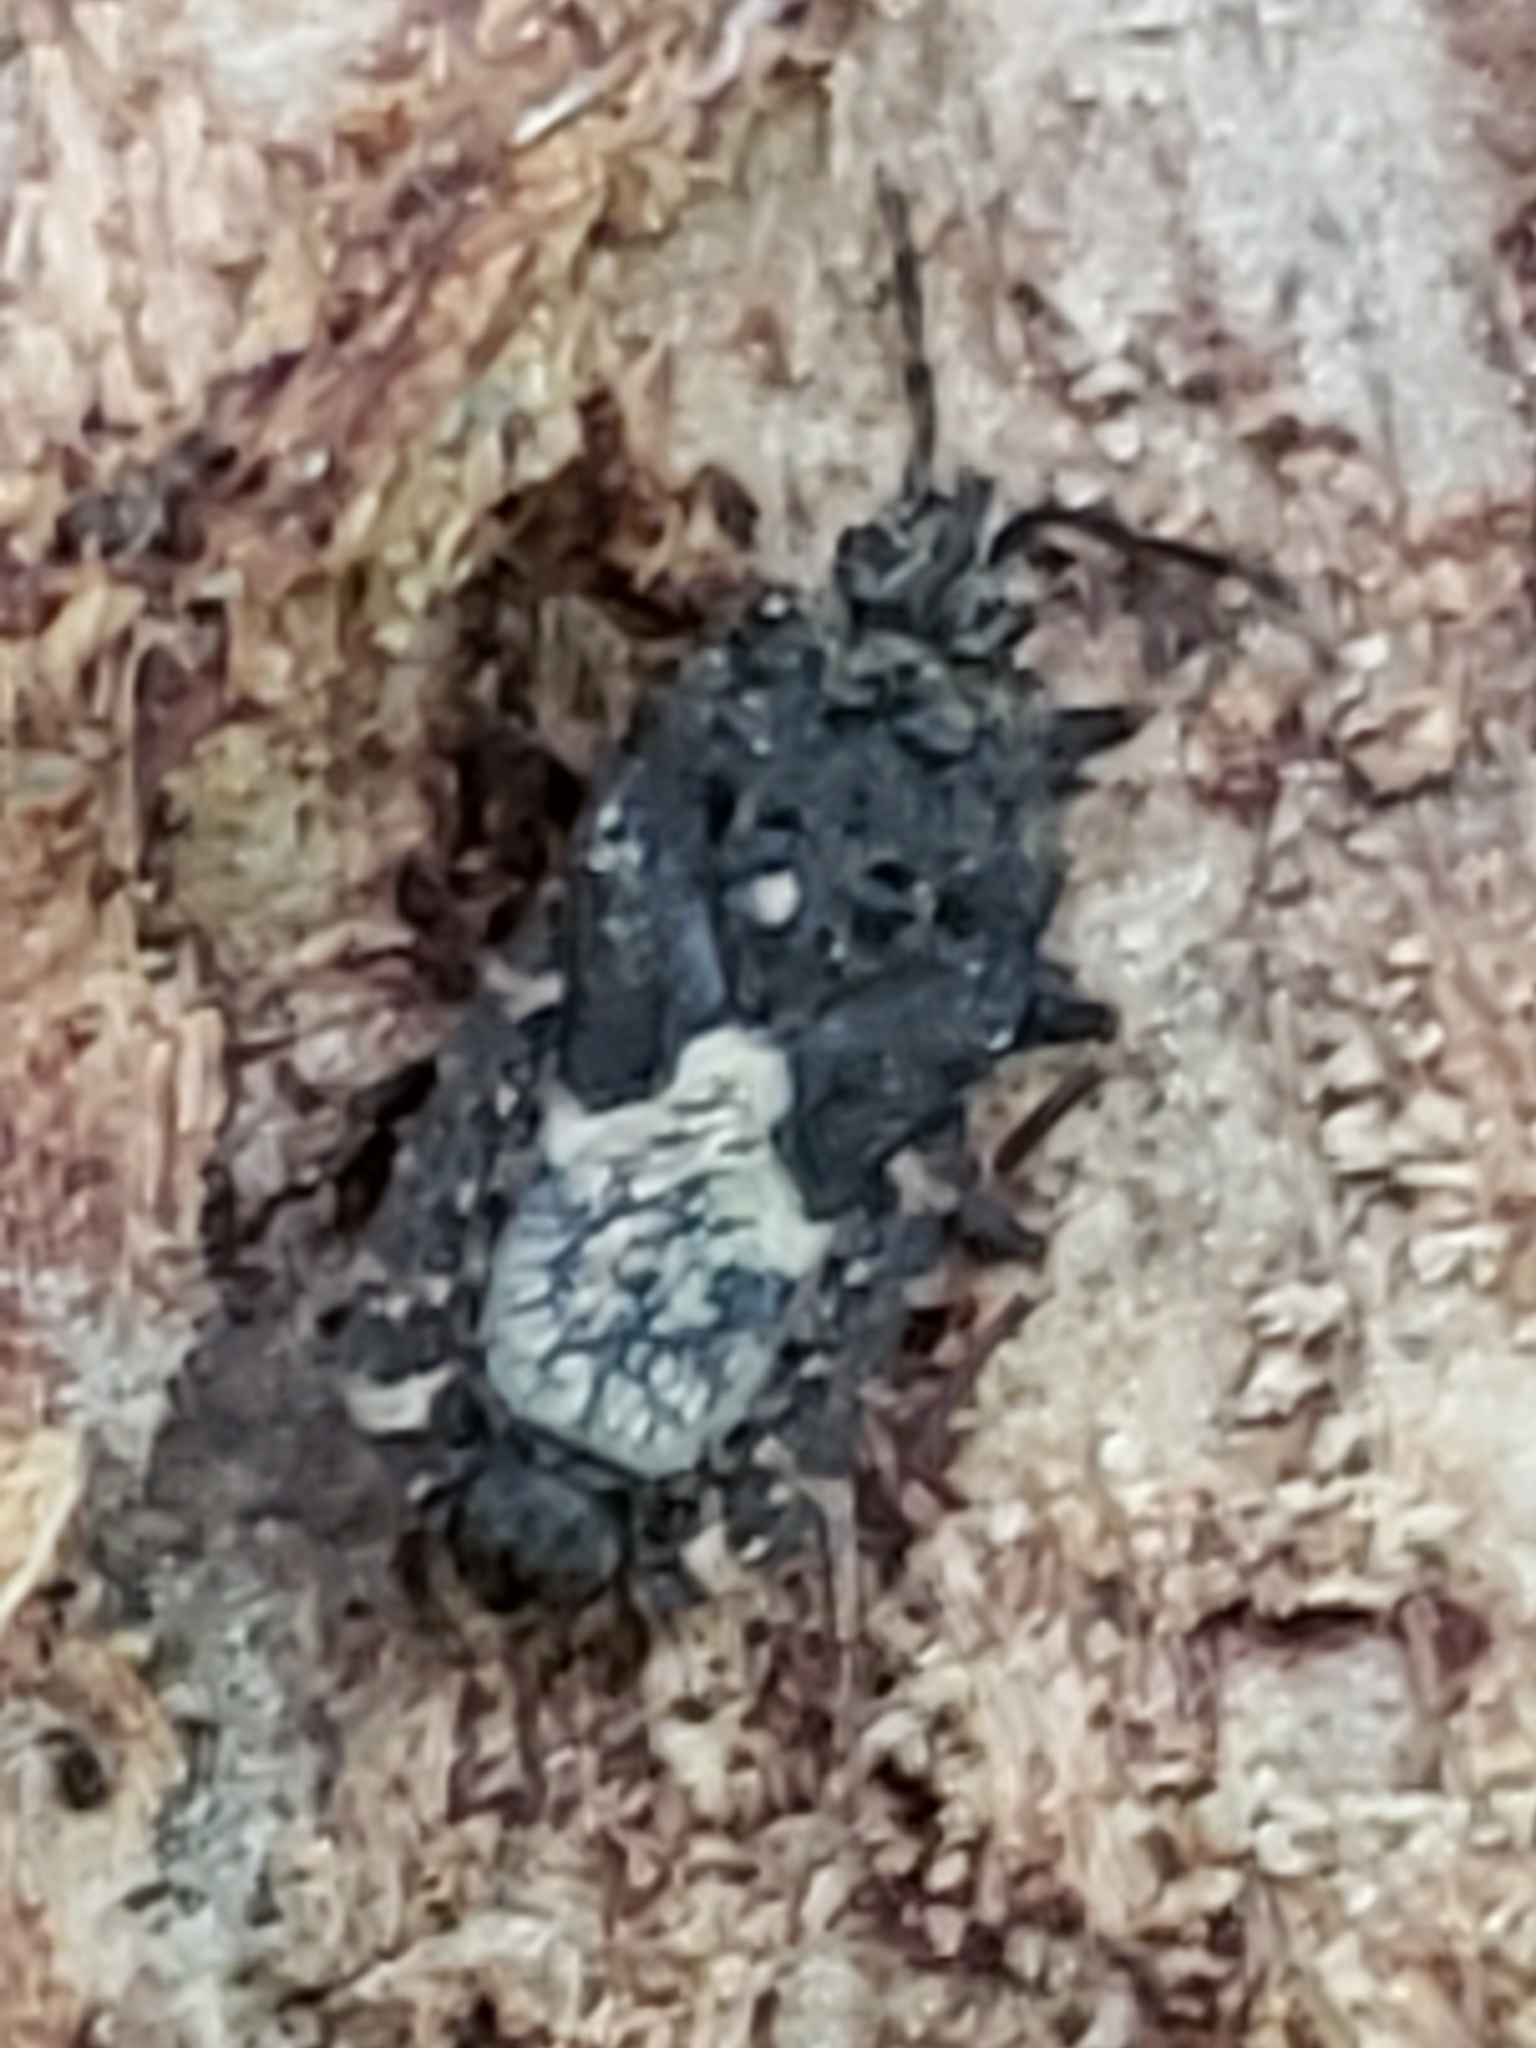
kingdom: Animalia
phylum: Arthropoda
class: Insecta
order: Hemiptera
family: Aradidae
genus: Mezira
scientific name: Mezira
